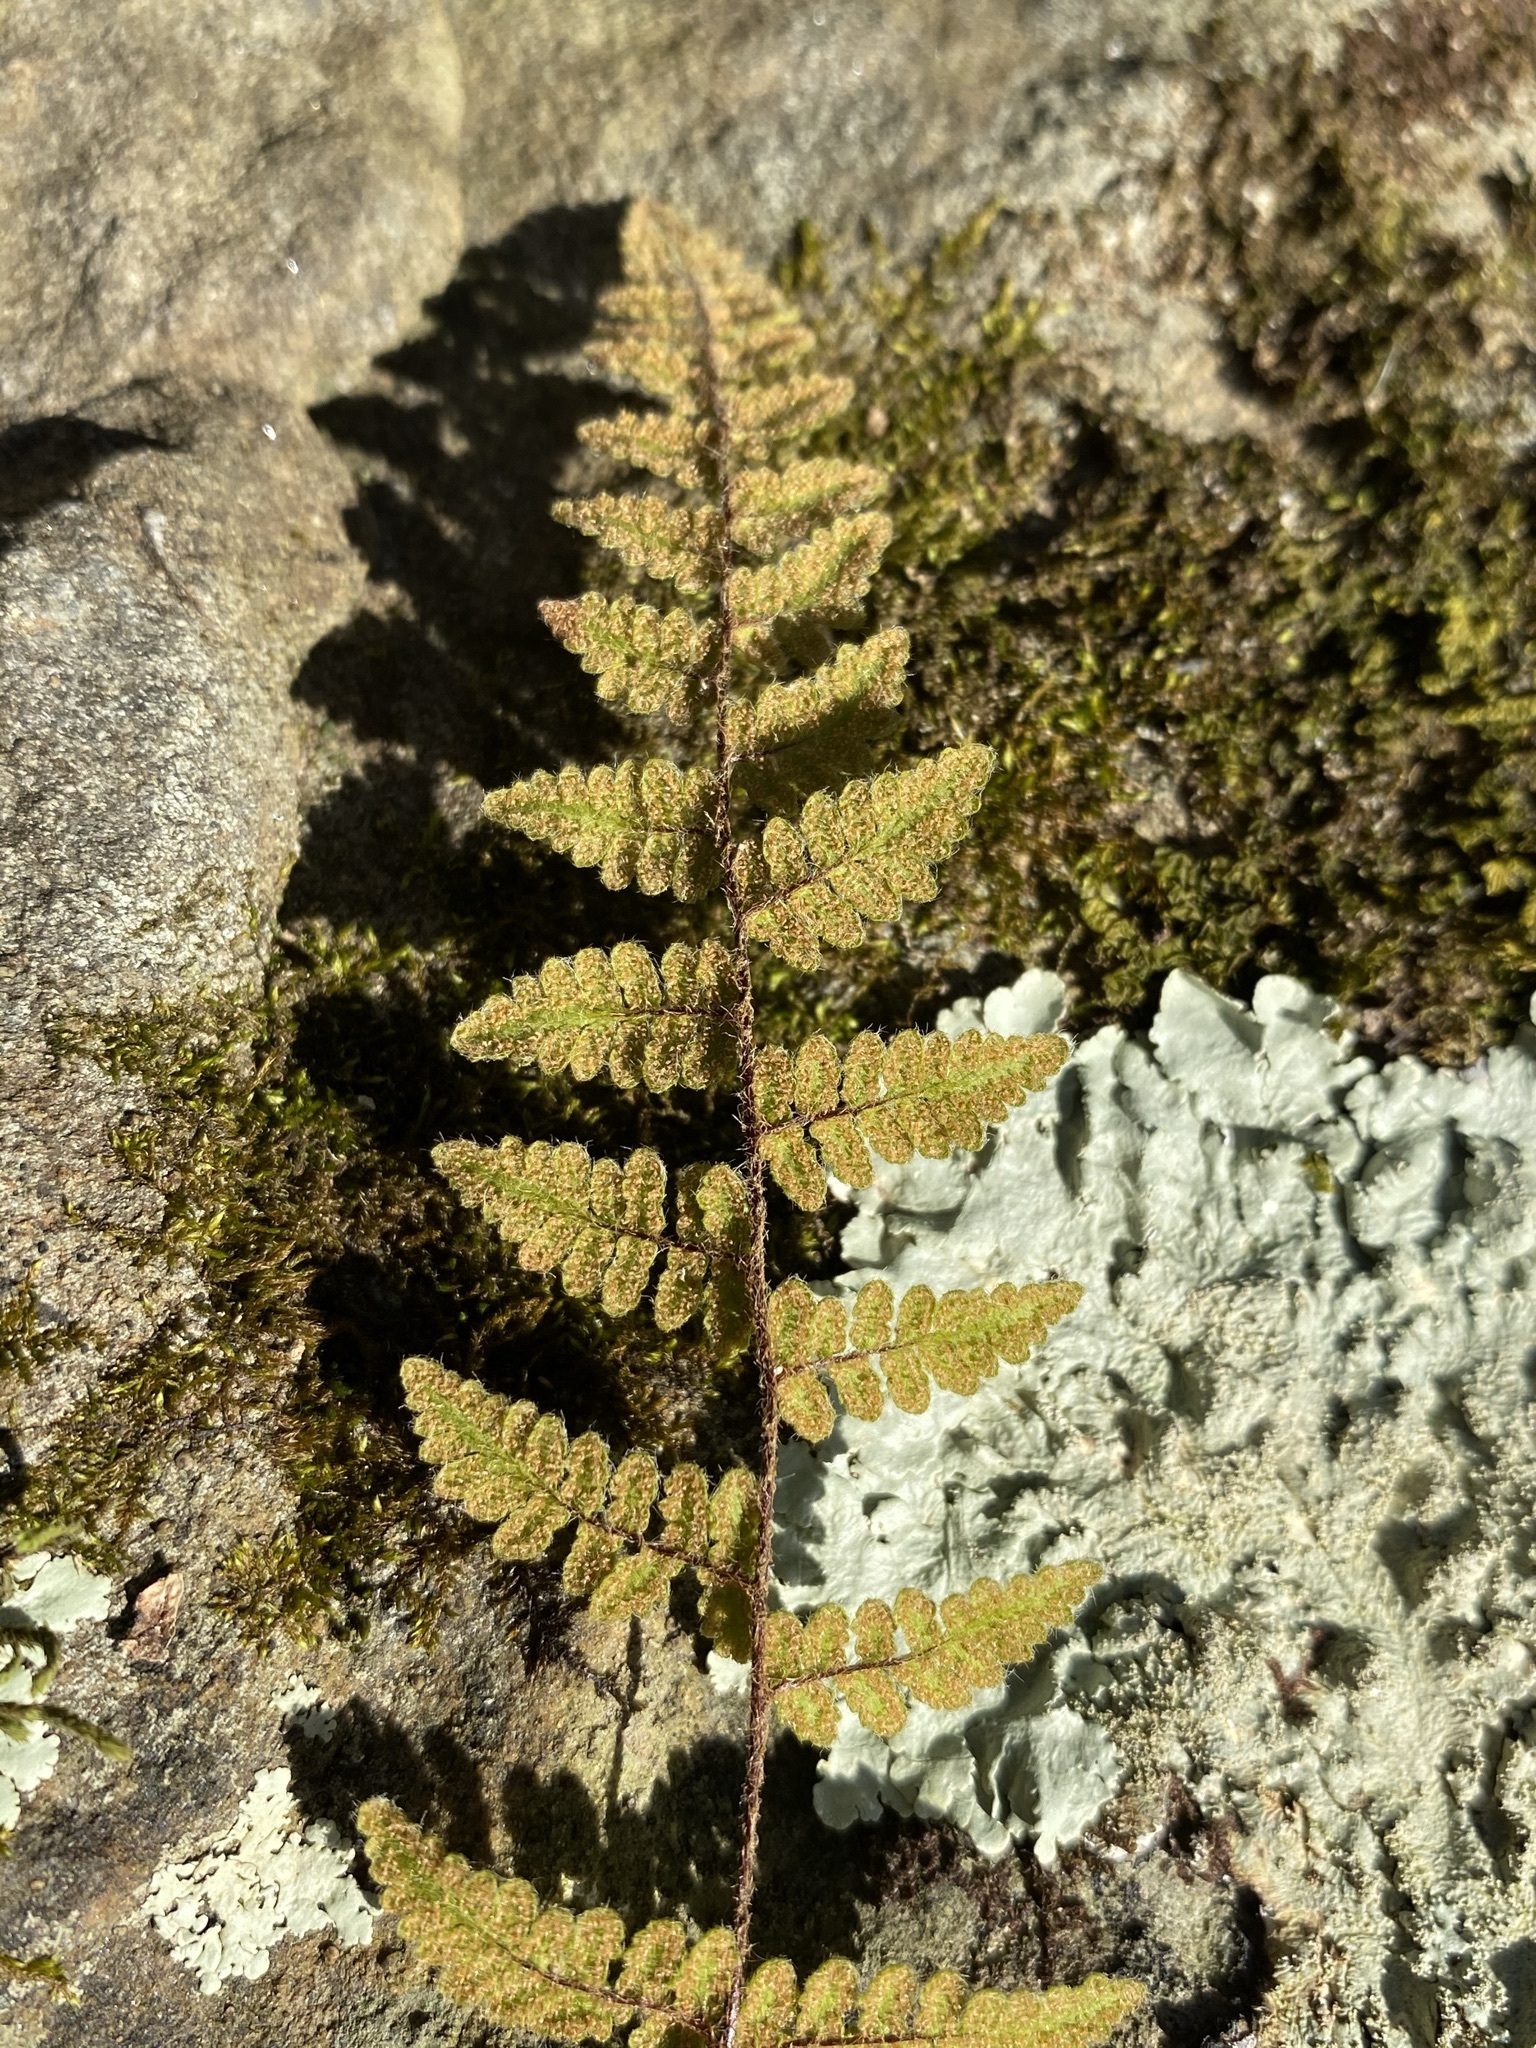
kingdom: Plantae
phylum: Tracheophyta
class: Polypodiopsida
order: Polypodiales
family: Pteridaceae
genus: Myriopteris
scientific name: Myriopteris lanosa
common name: Hairy lip fern
